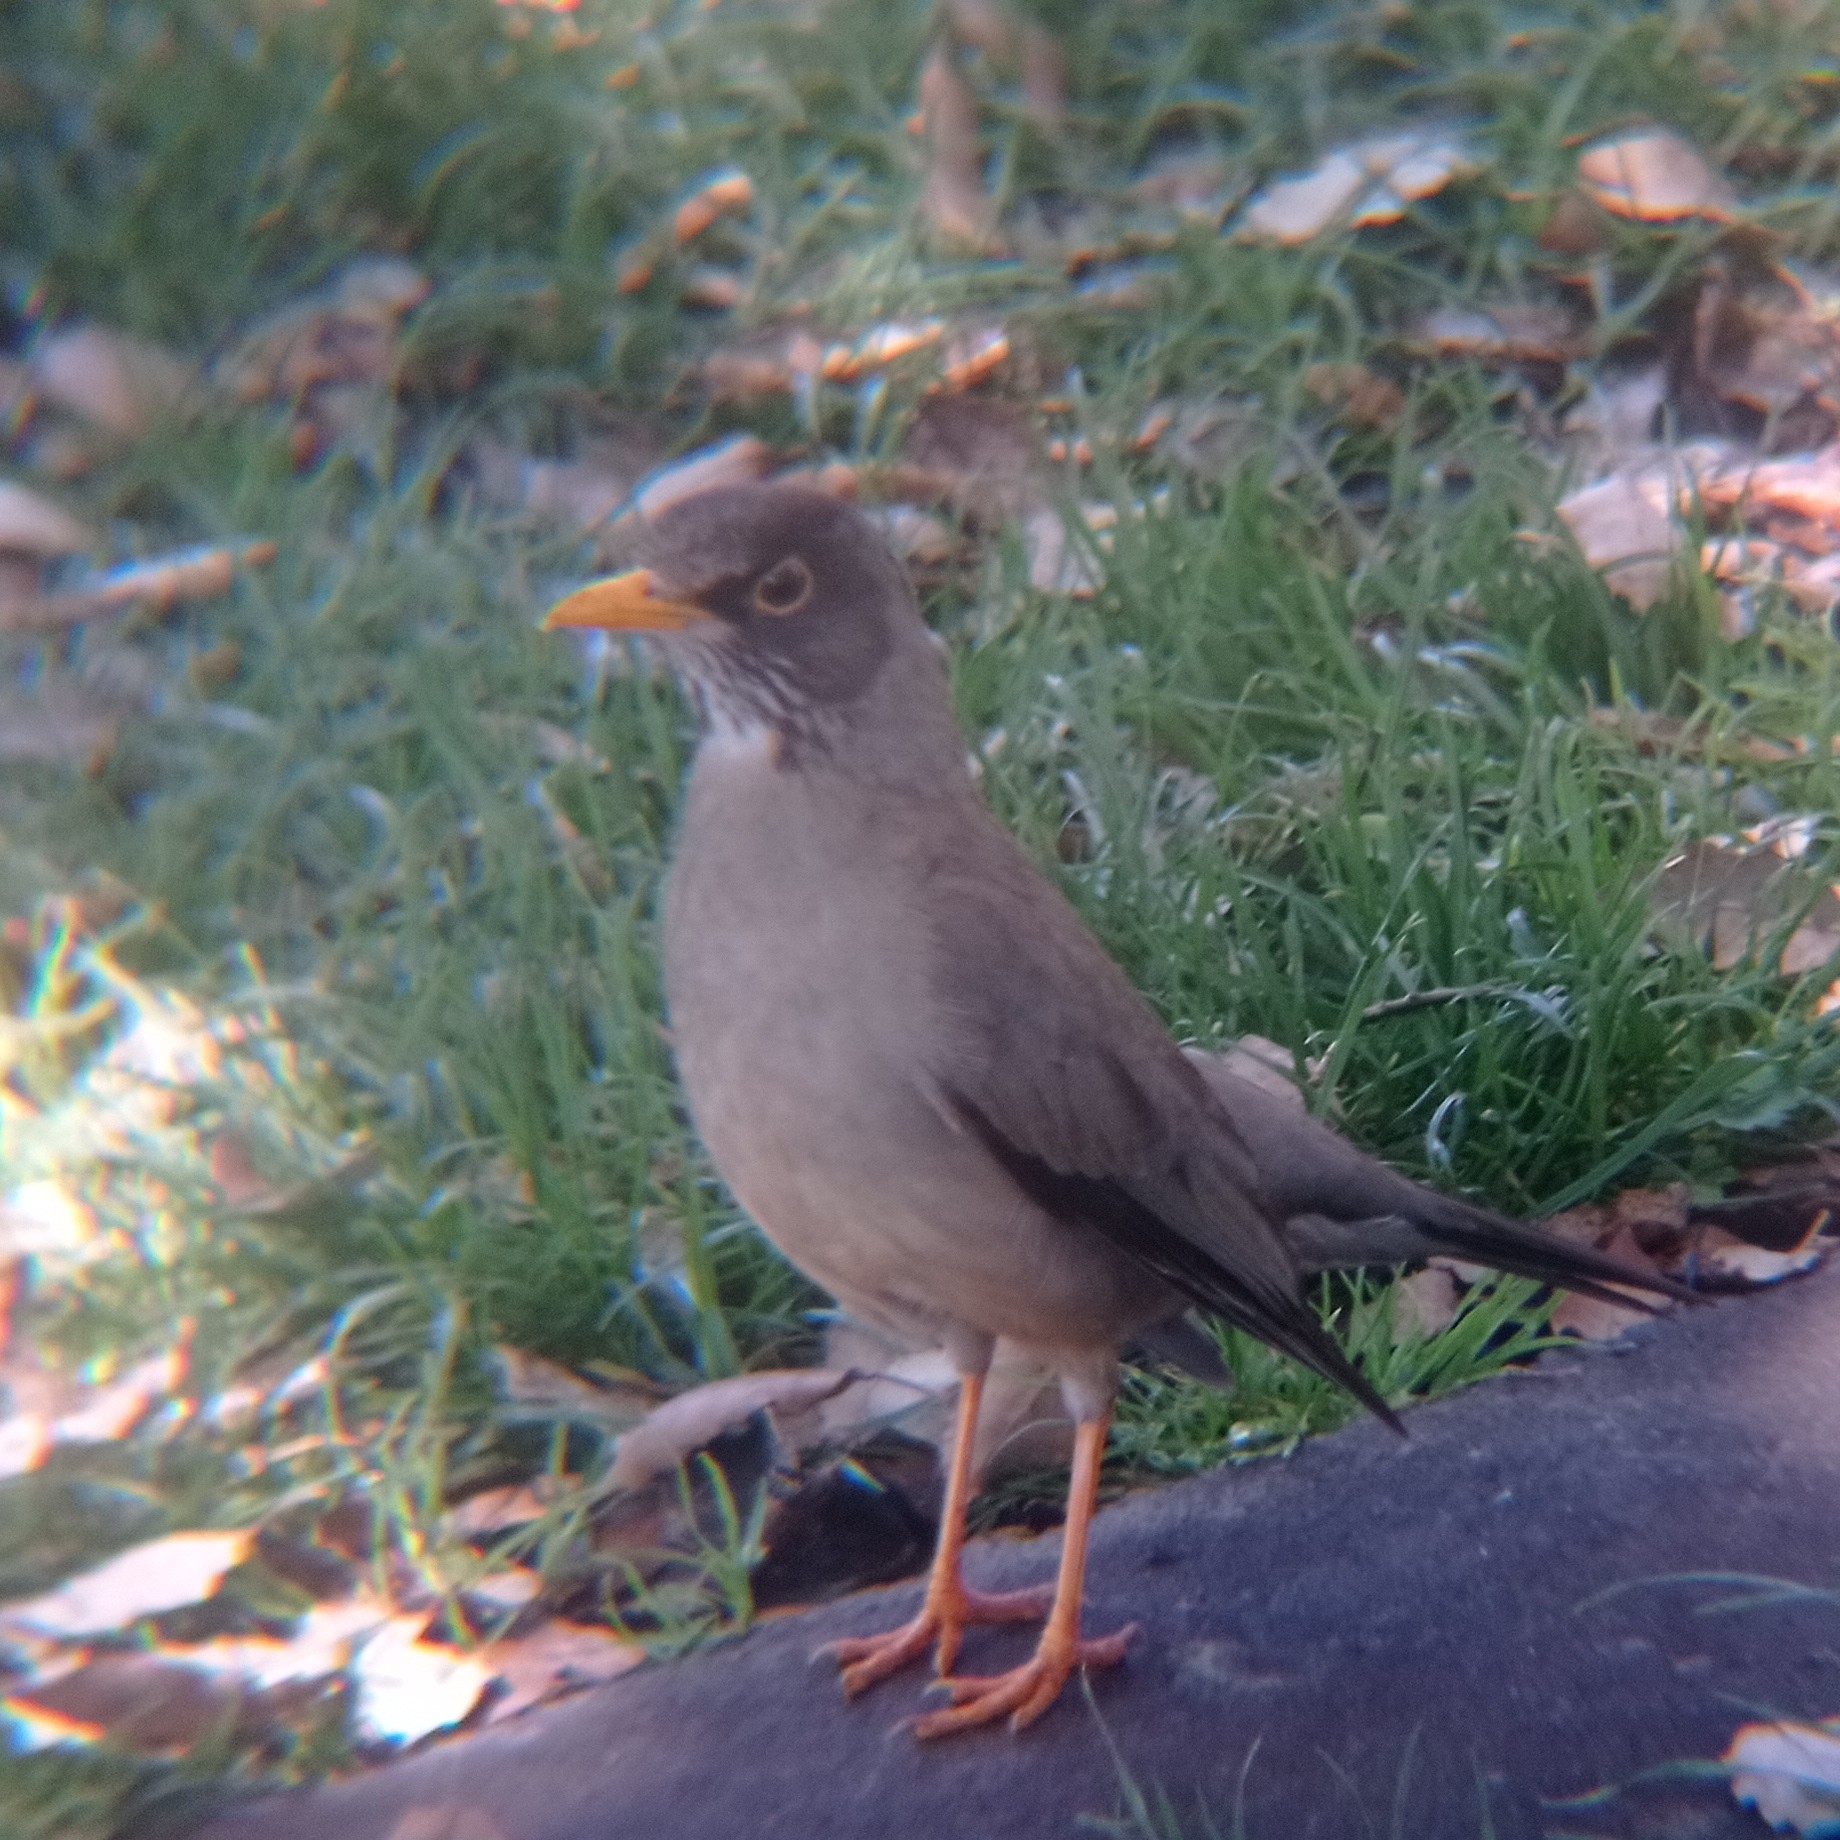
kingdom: Animalia
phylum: Chordata
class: Aves
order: Passeriformes
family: Turdidae
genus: Turdus
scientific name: Turdus falcklandii
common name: Austral thrush
